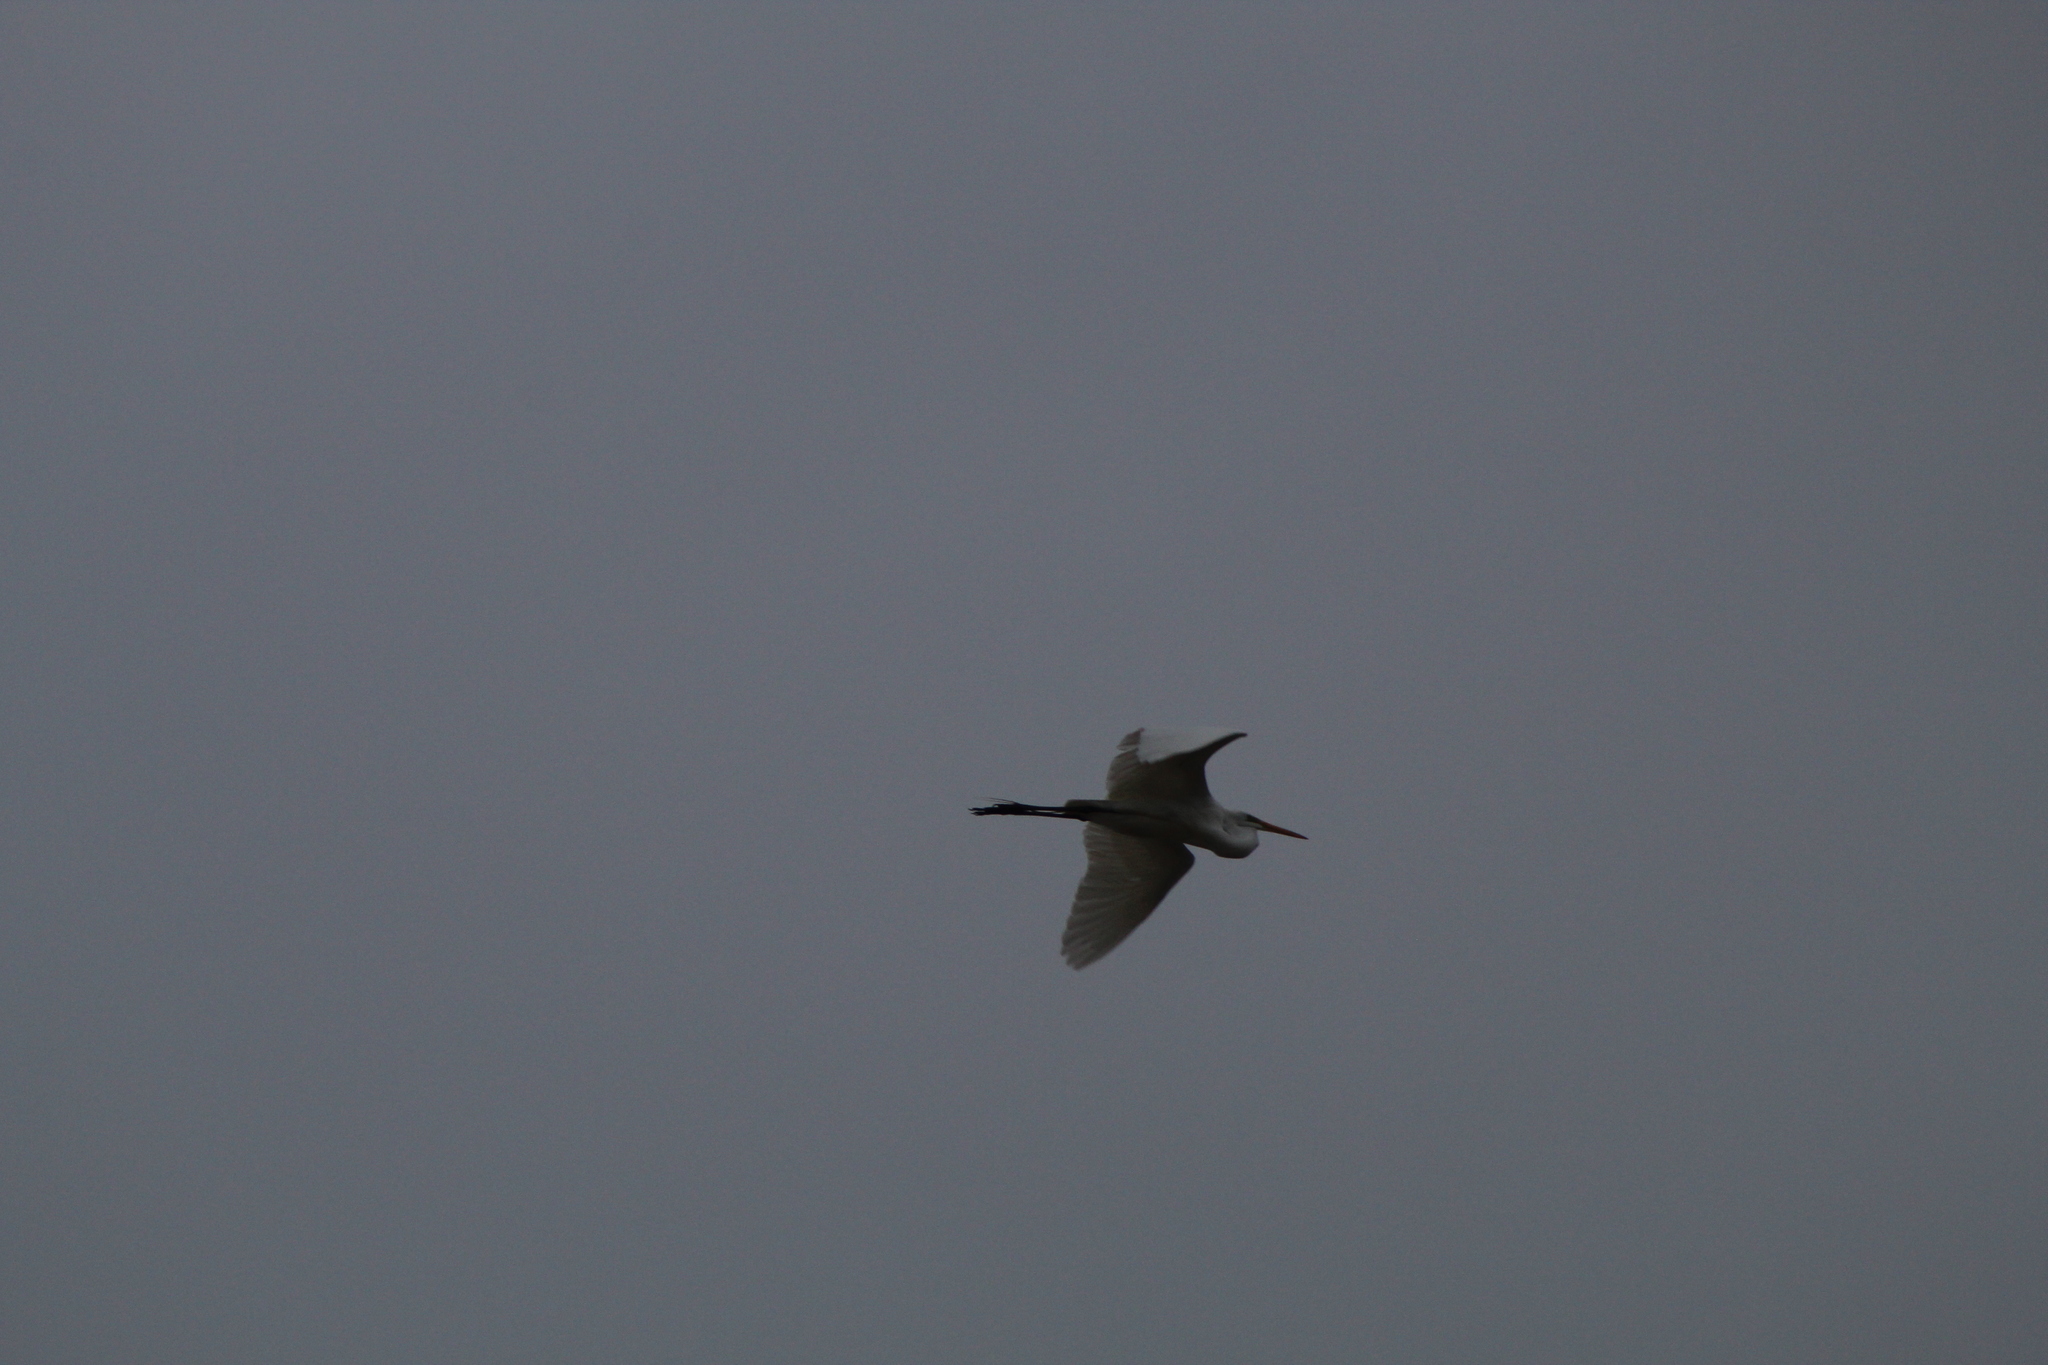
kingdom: Animalia
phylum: Chordata
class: Aves
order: Pelecaniformes
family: Ardeidae
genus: Ardea
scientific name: Ardea alba
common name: Great egret
